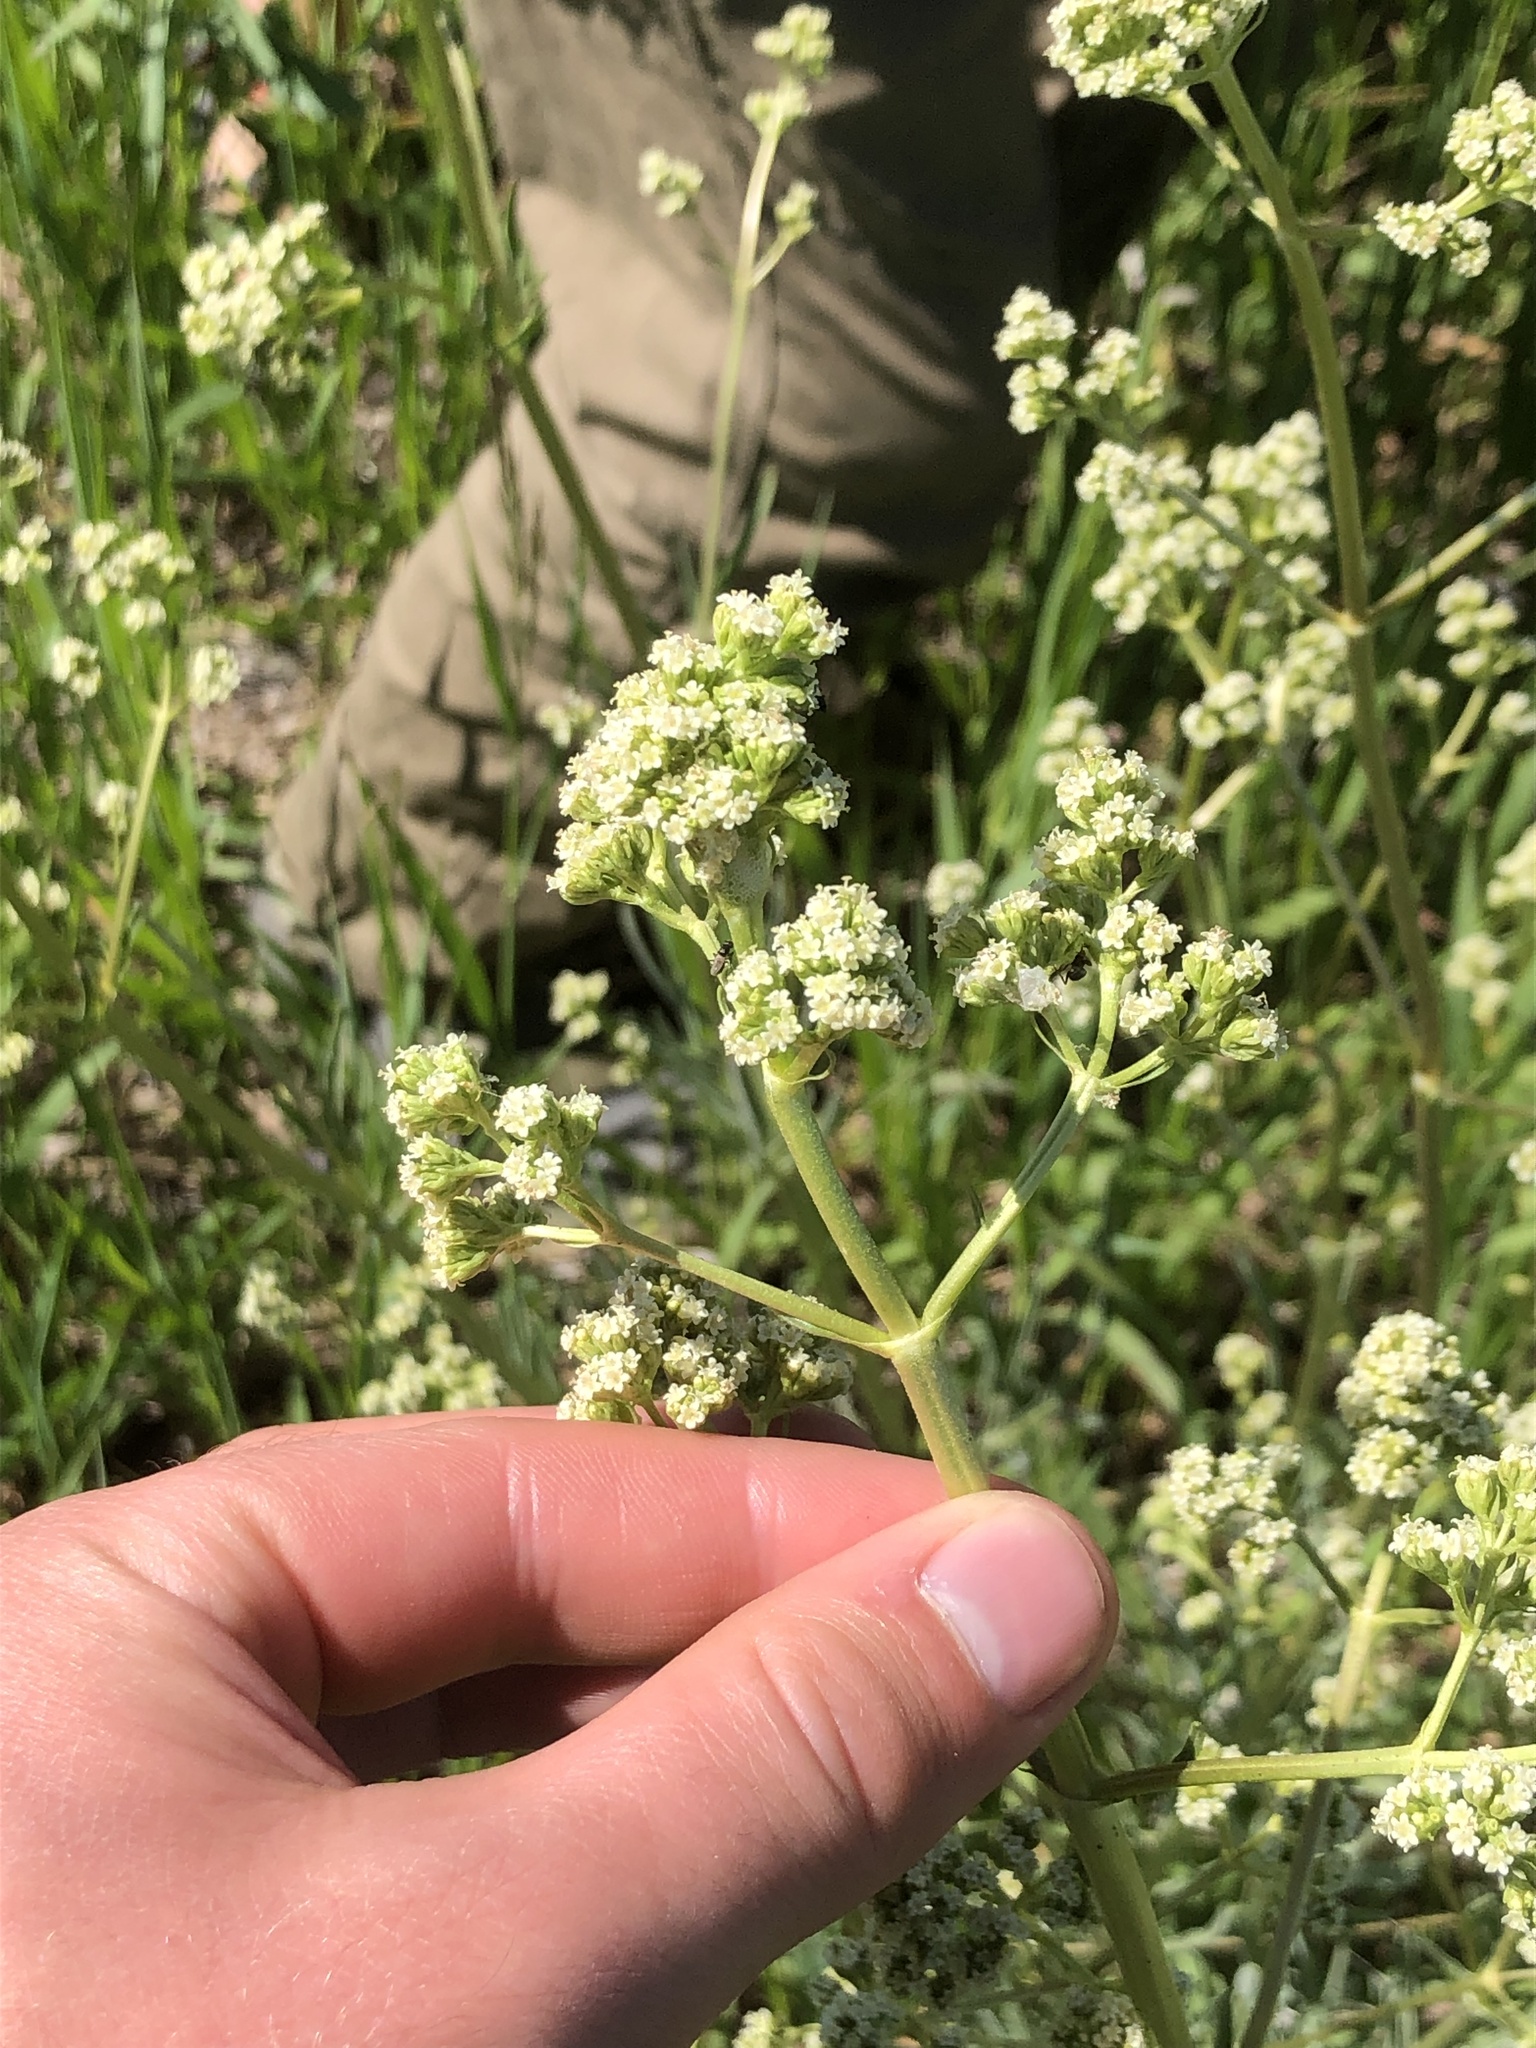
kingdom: Plantae
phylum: Tracheophyta
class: Magnoliopsida
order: Dipsacales
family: Caprifoliaceae
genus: Valeriana
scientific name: Valeriana edulis
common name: Taproot valerian
